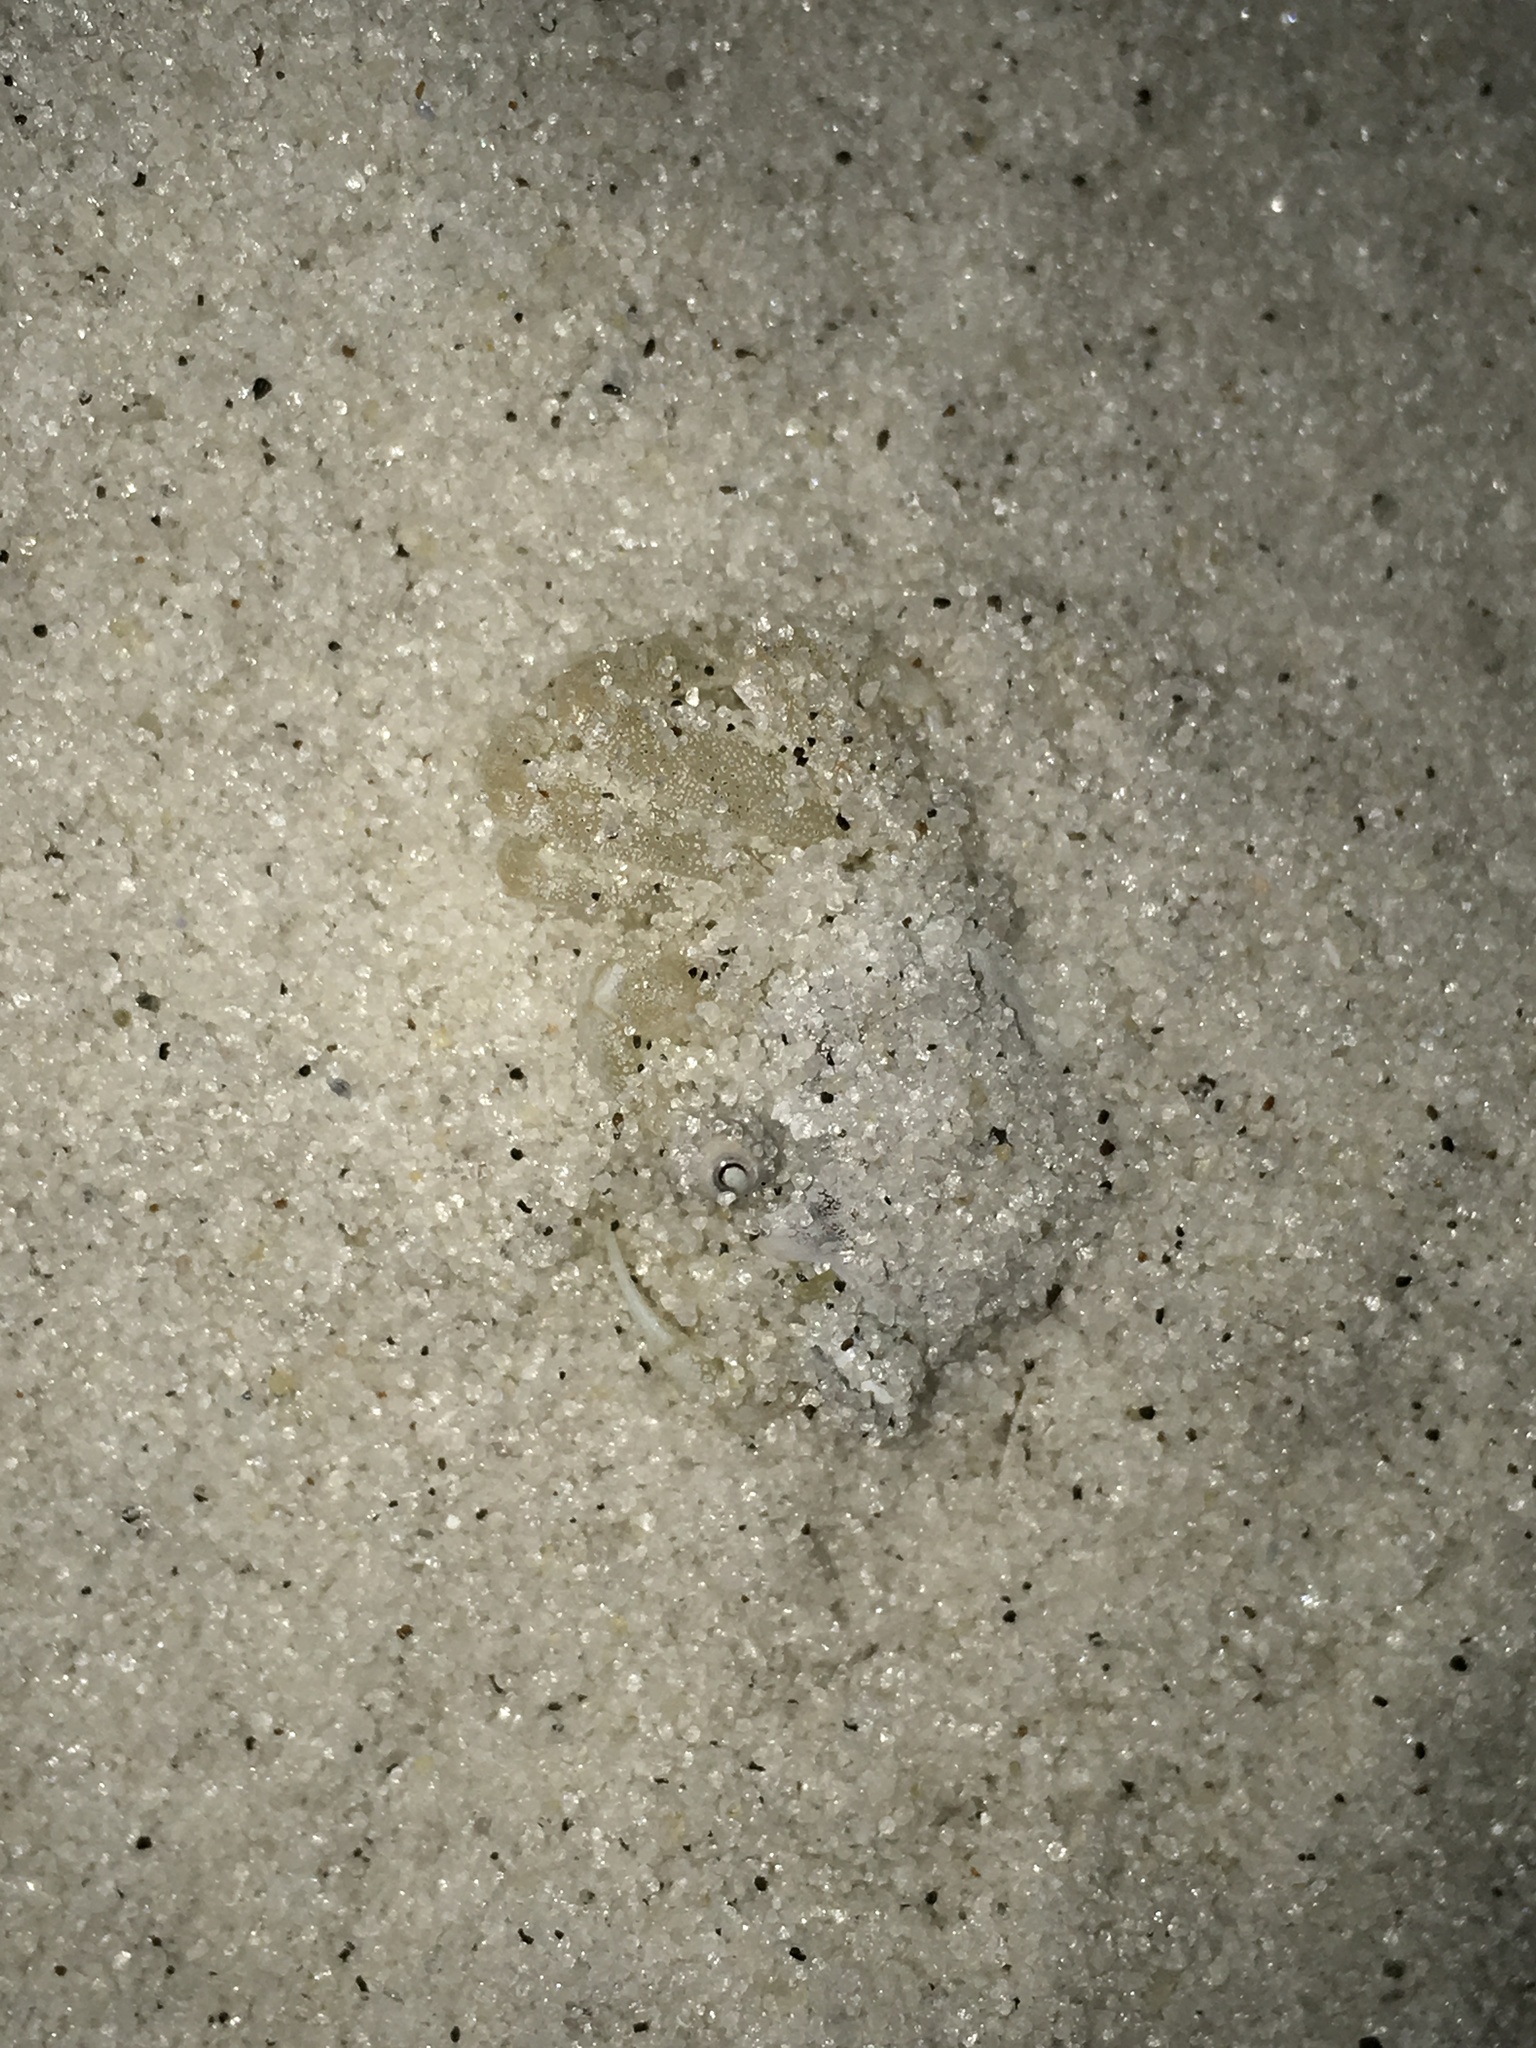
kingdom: Animalia
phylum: Arthropoda
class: Malacostraca
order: Decapoda
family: Ocypodidae
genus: Ocypode
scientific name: Ocypode quadrata
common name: Ghost crab
